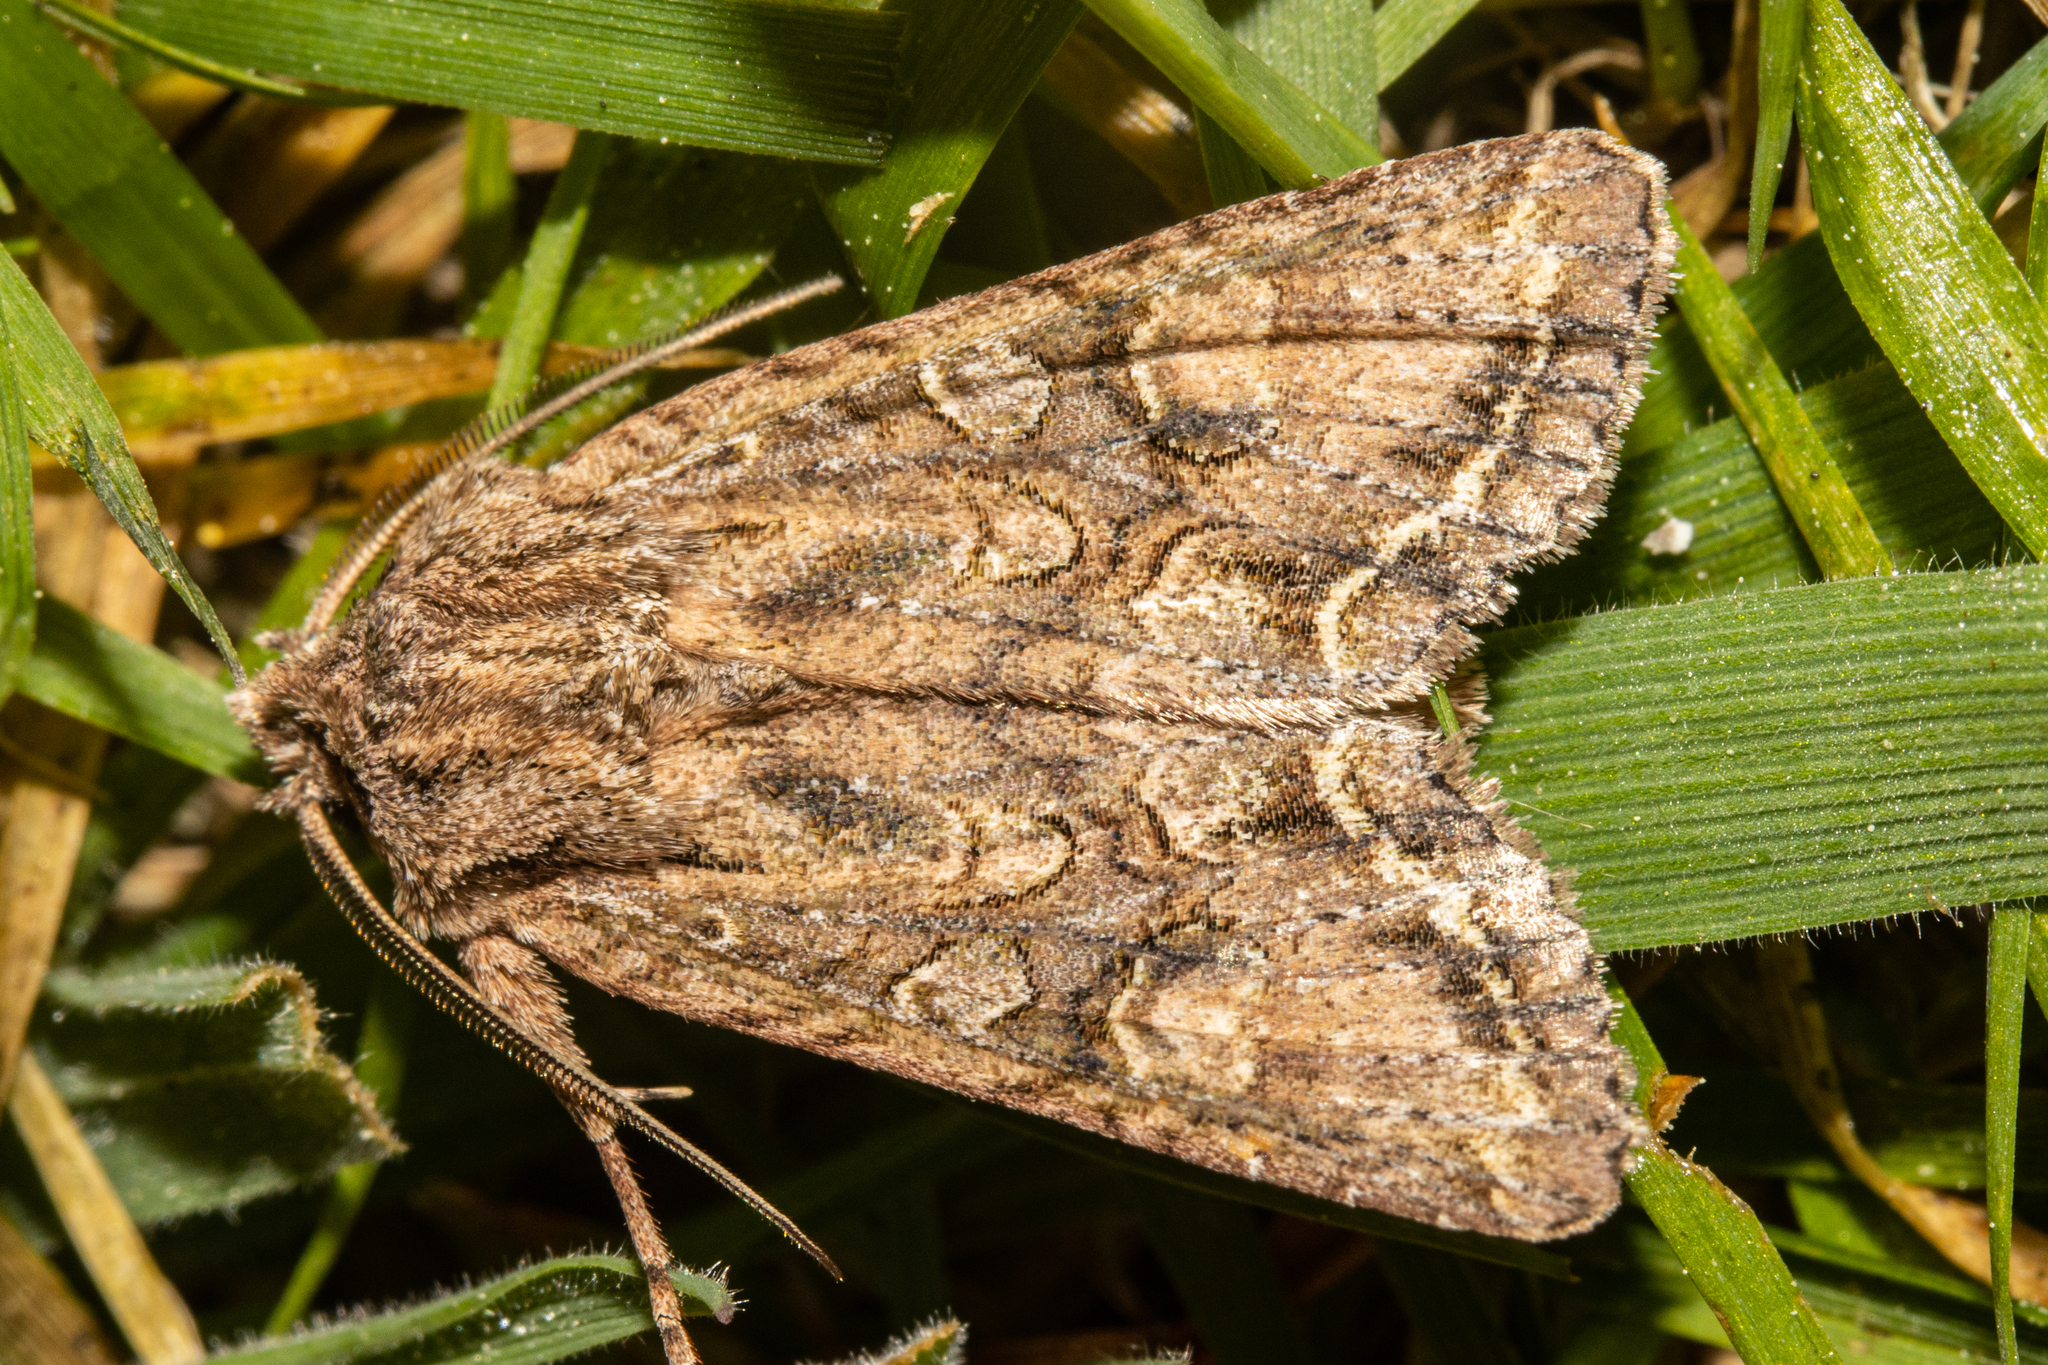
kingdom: Animalia
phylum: Arthropoda
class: Insecta
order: Lepidoptera
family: Noctuidae
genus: Ichneutica
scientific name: Ichneutica mutans
